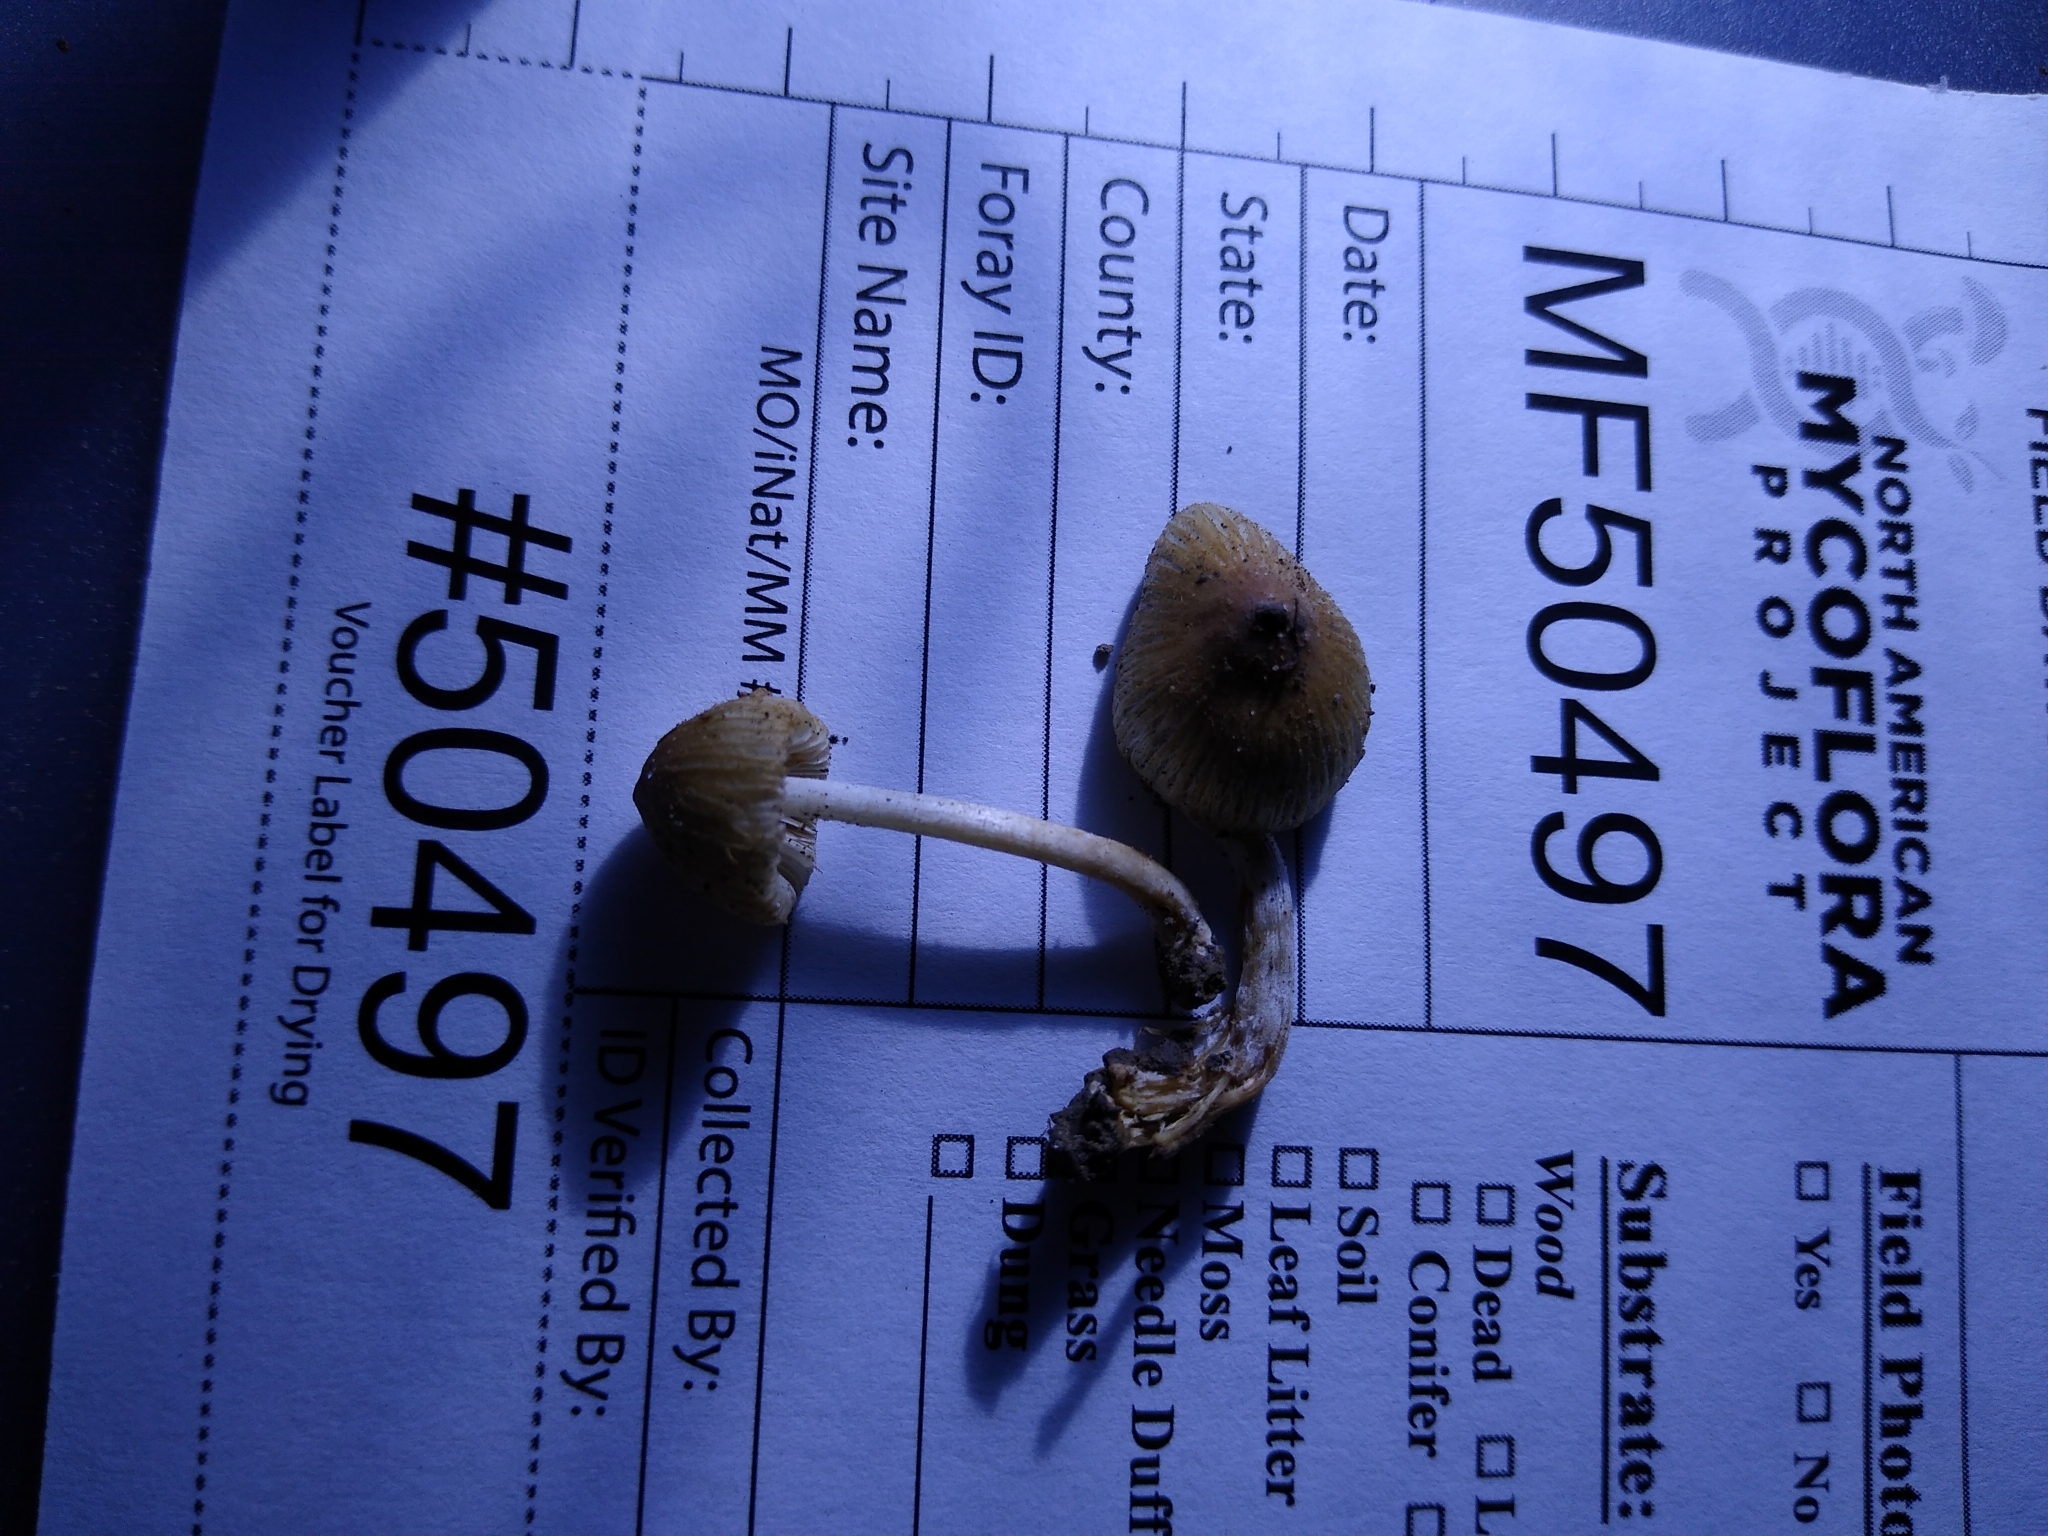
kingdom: Fungi
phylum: Basidiomycota
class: Agaricomycetes
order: Agaricales
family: Inocybaceae
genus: Pseudosperma
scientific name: Pseudosperma friabile
